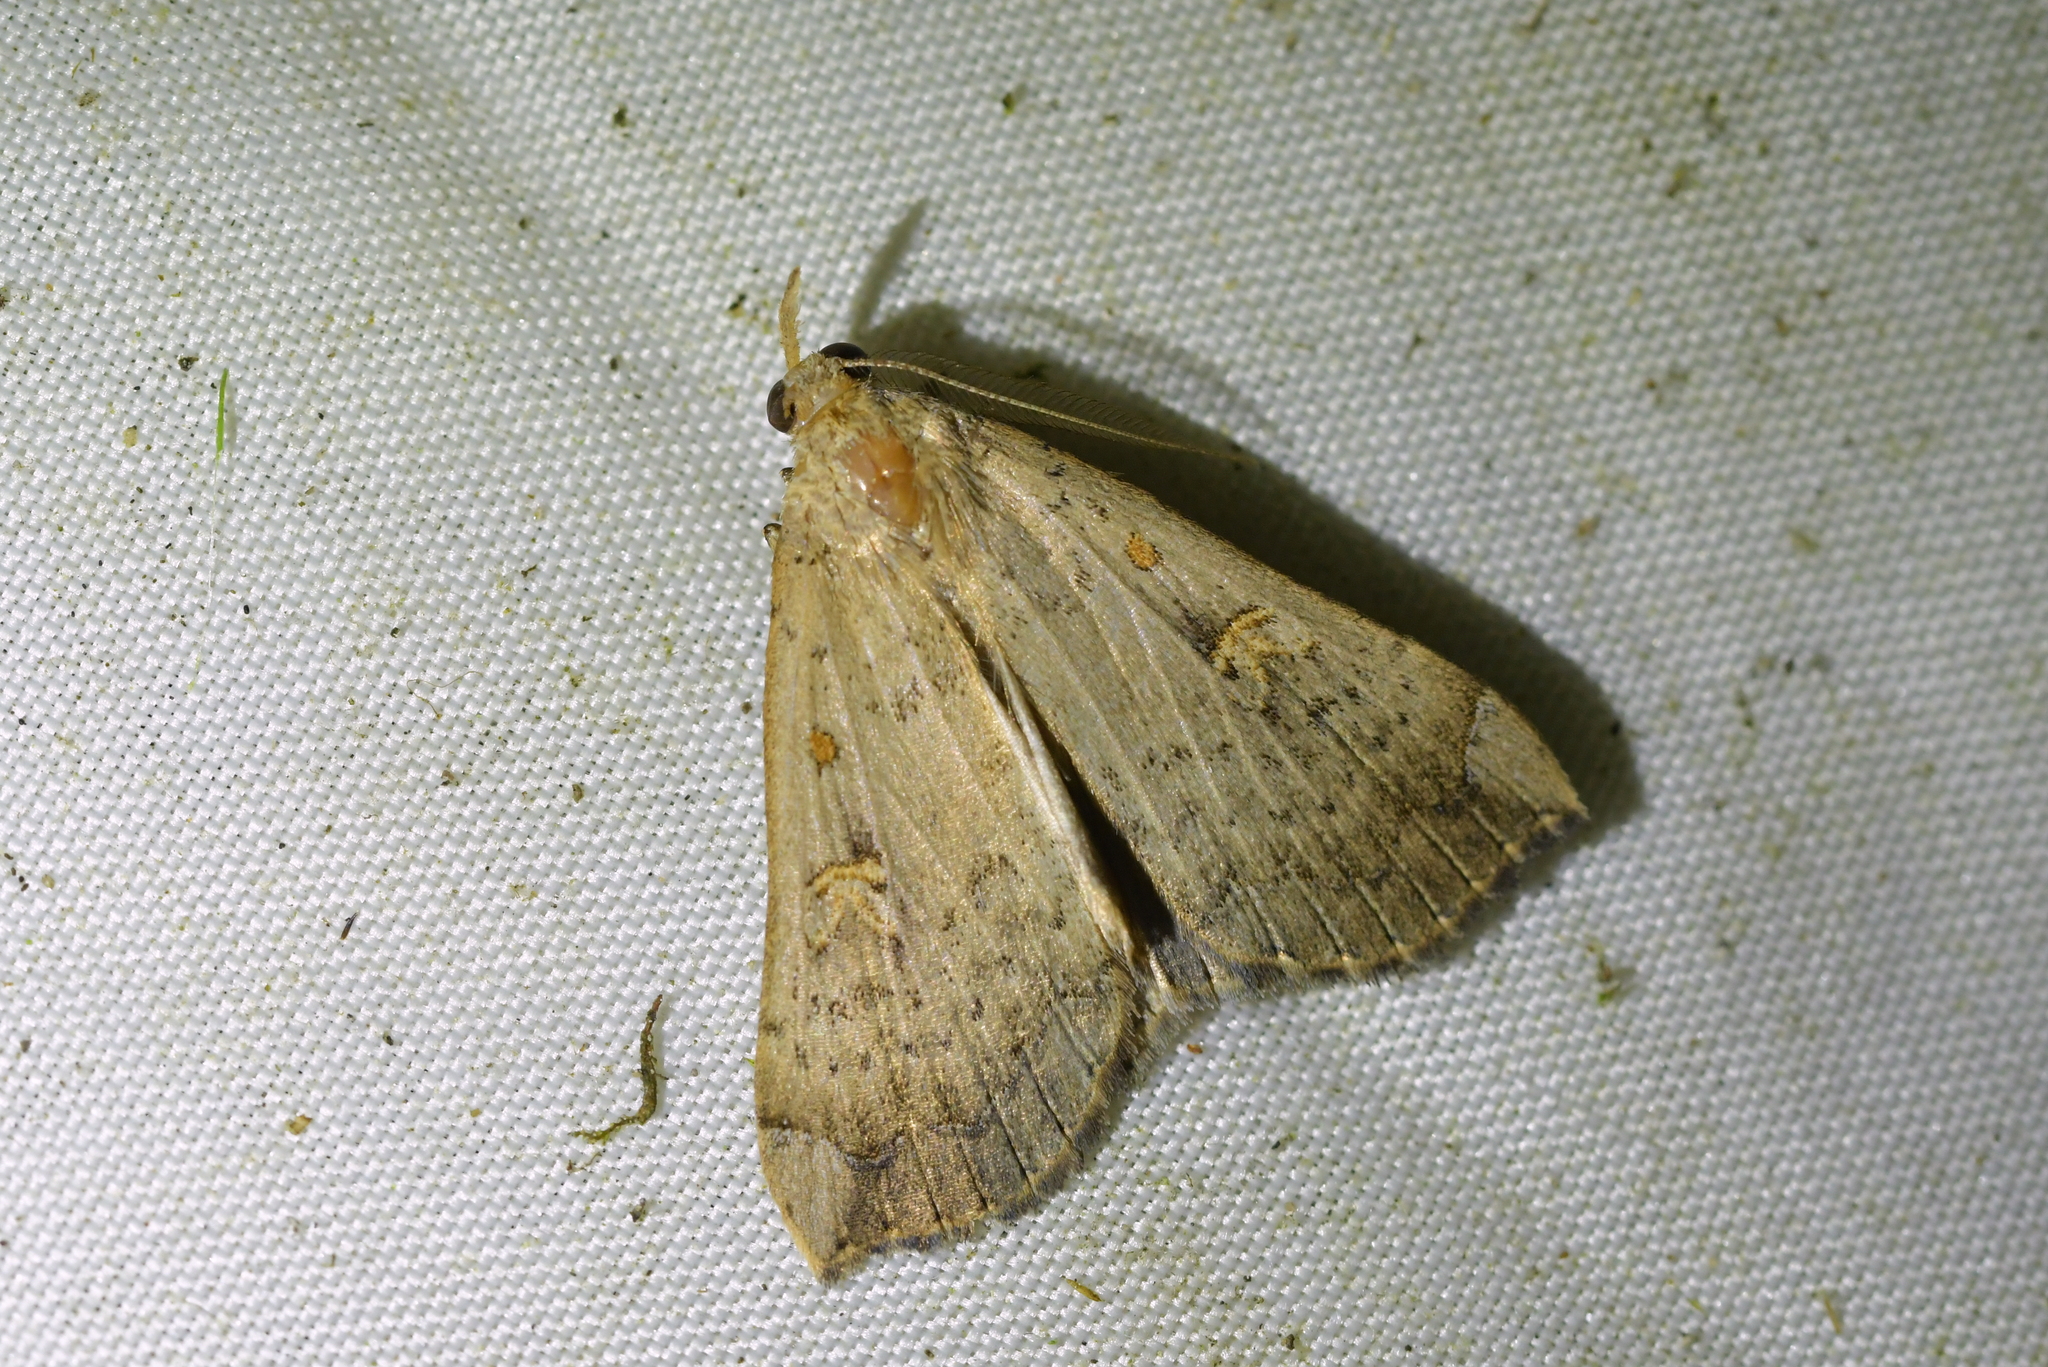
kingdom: Animalia
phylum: Arthropoda
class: Insecta
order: Lepidoptera
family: Erebidae
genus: Rhapsa
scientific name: Rhapsa scotosialis
